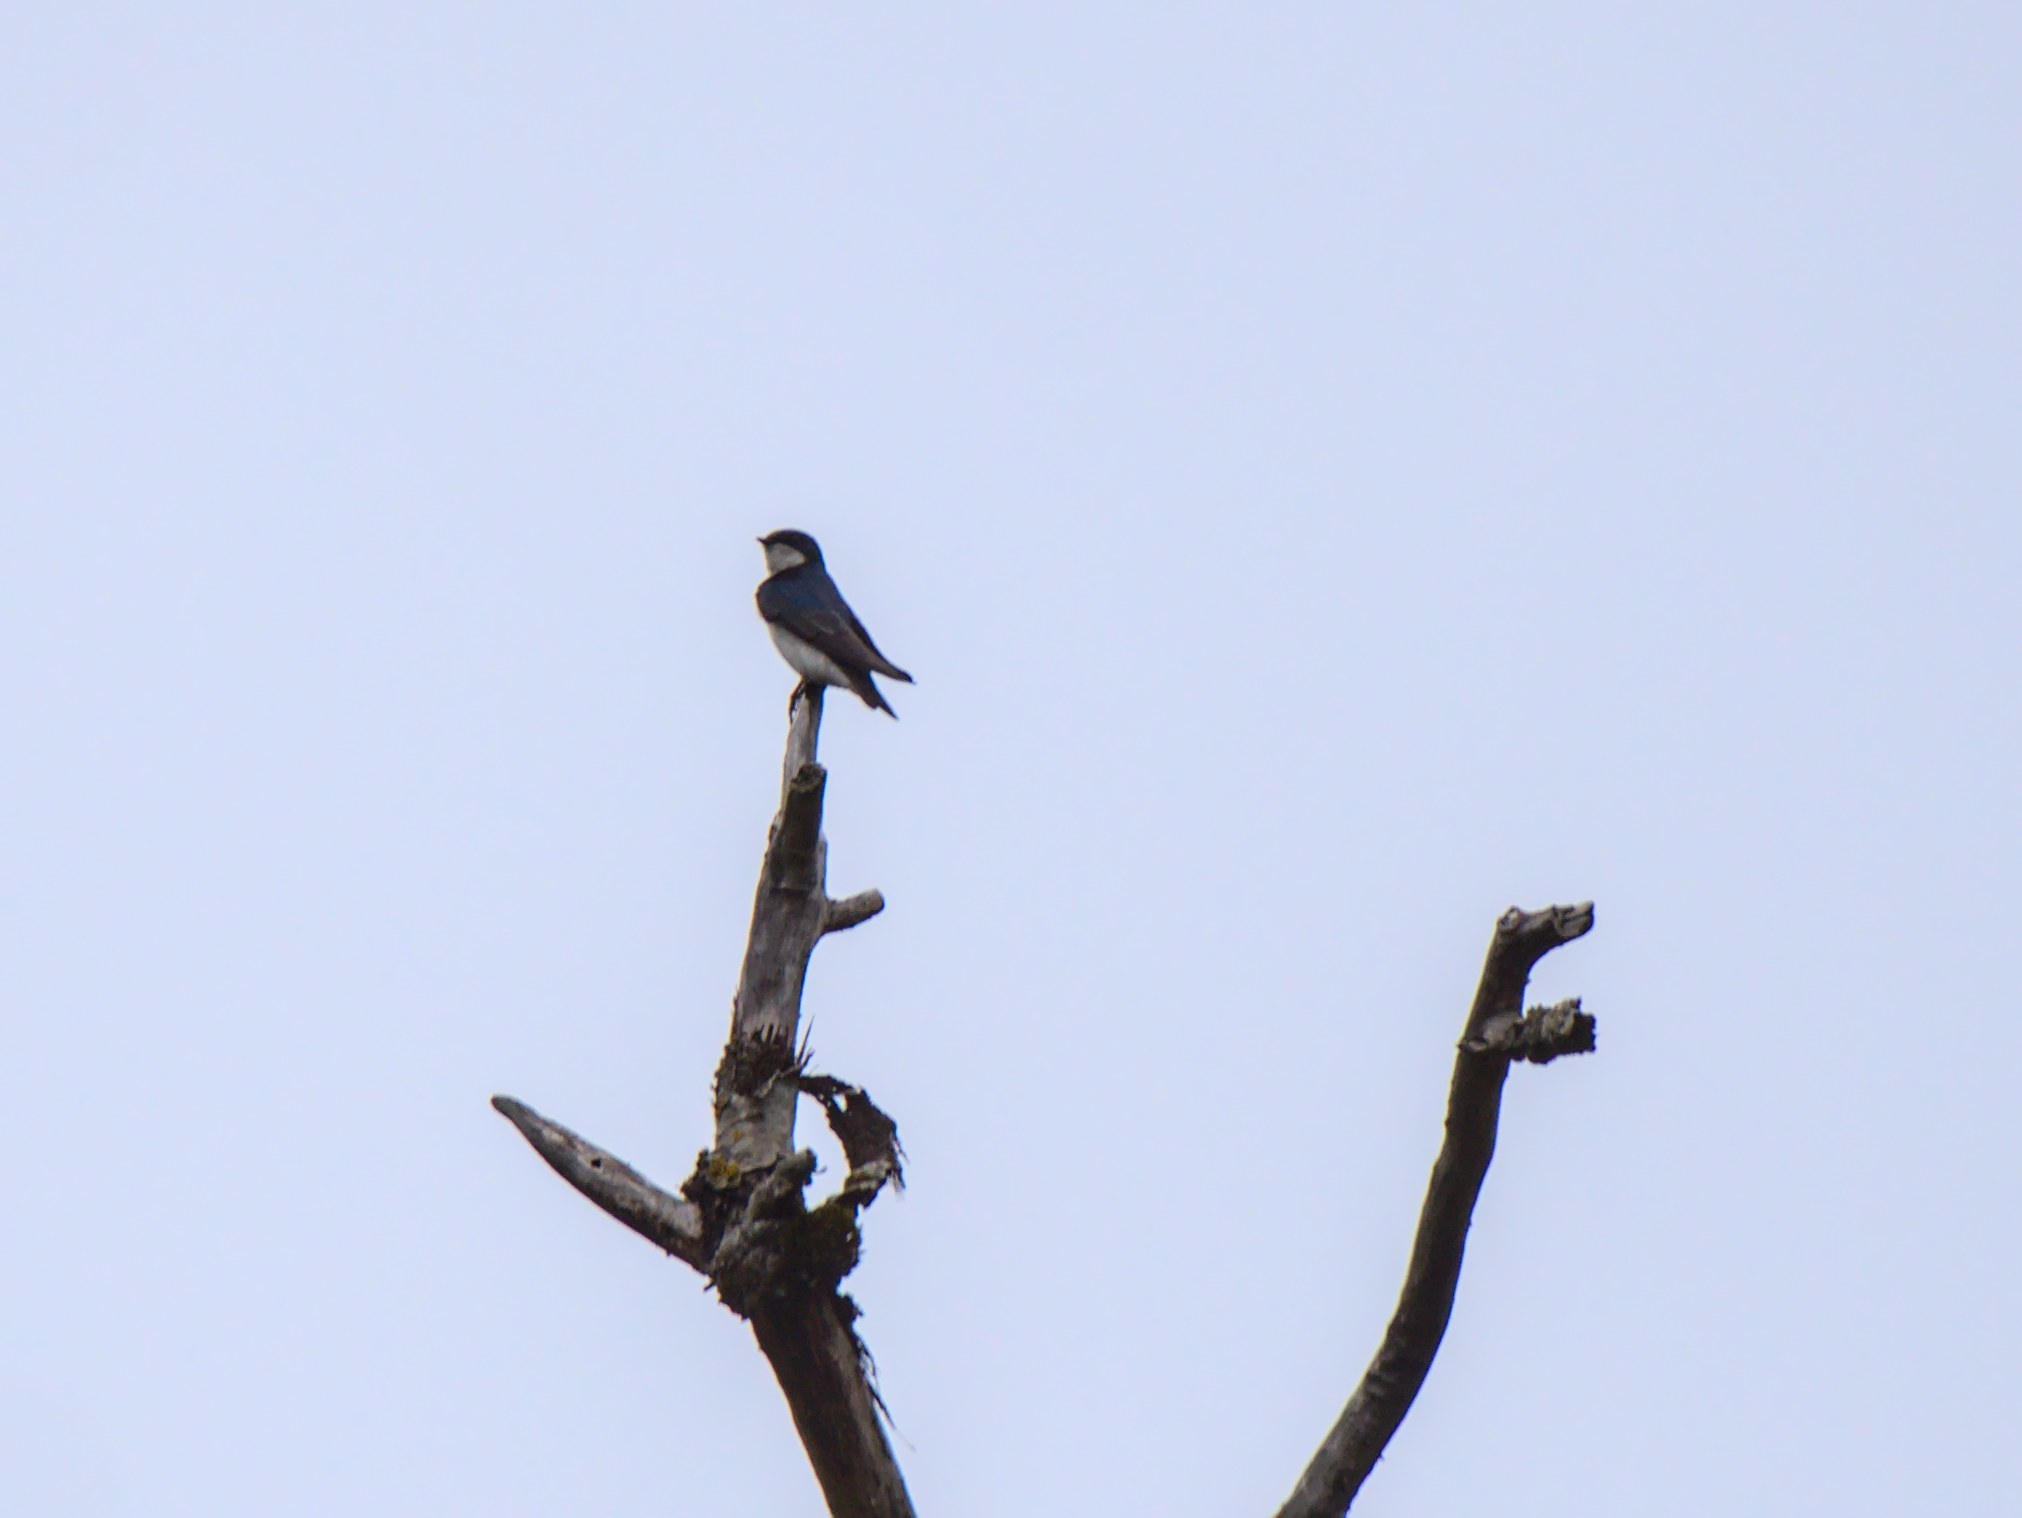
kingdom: Animalia
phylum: Chordata
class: Aves
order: Passeriformes
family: Hirundinidae
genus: Tachycineta
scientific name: Tachycineta bicolor
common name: Tree swallow
